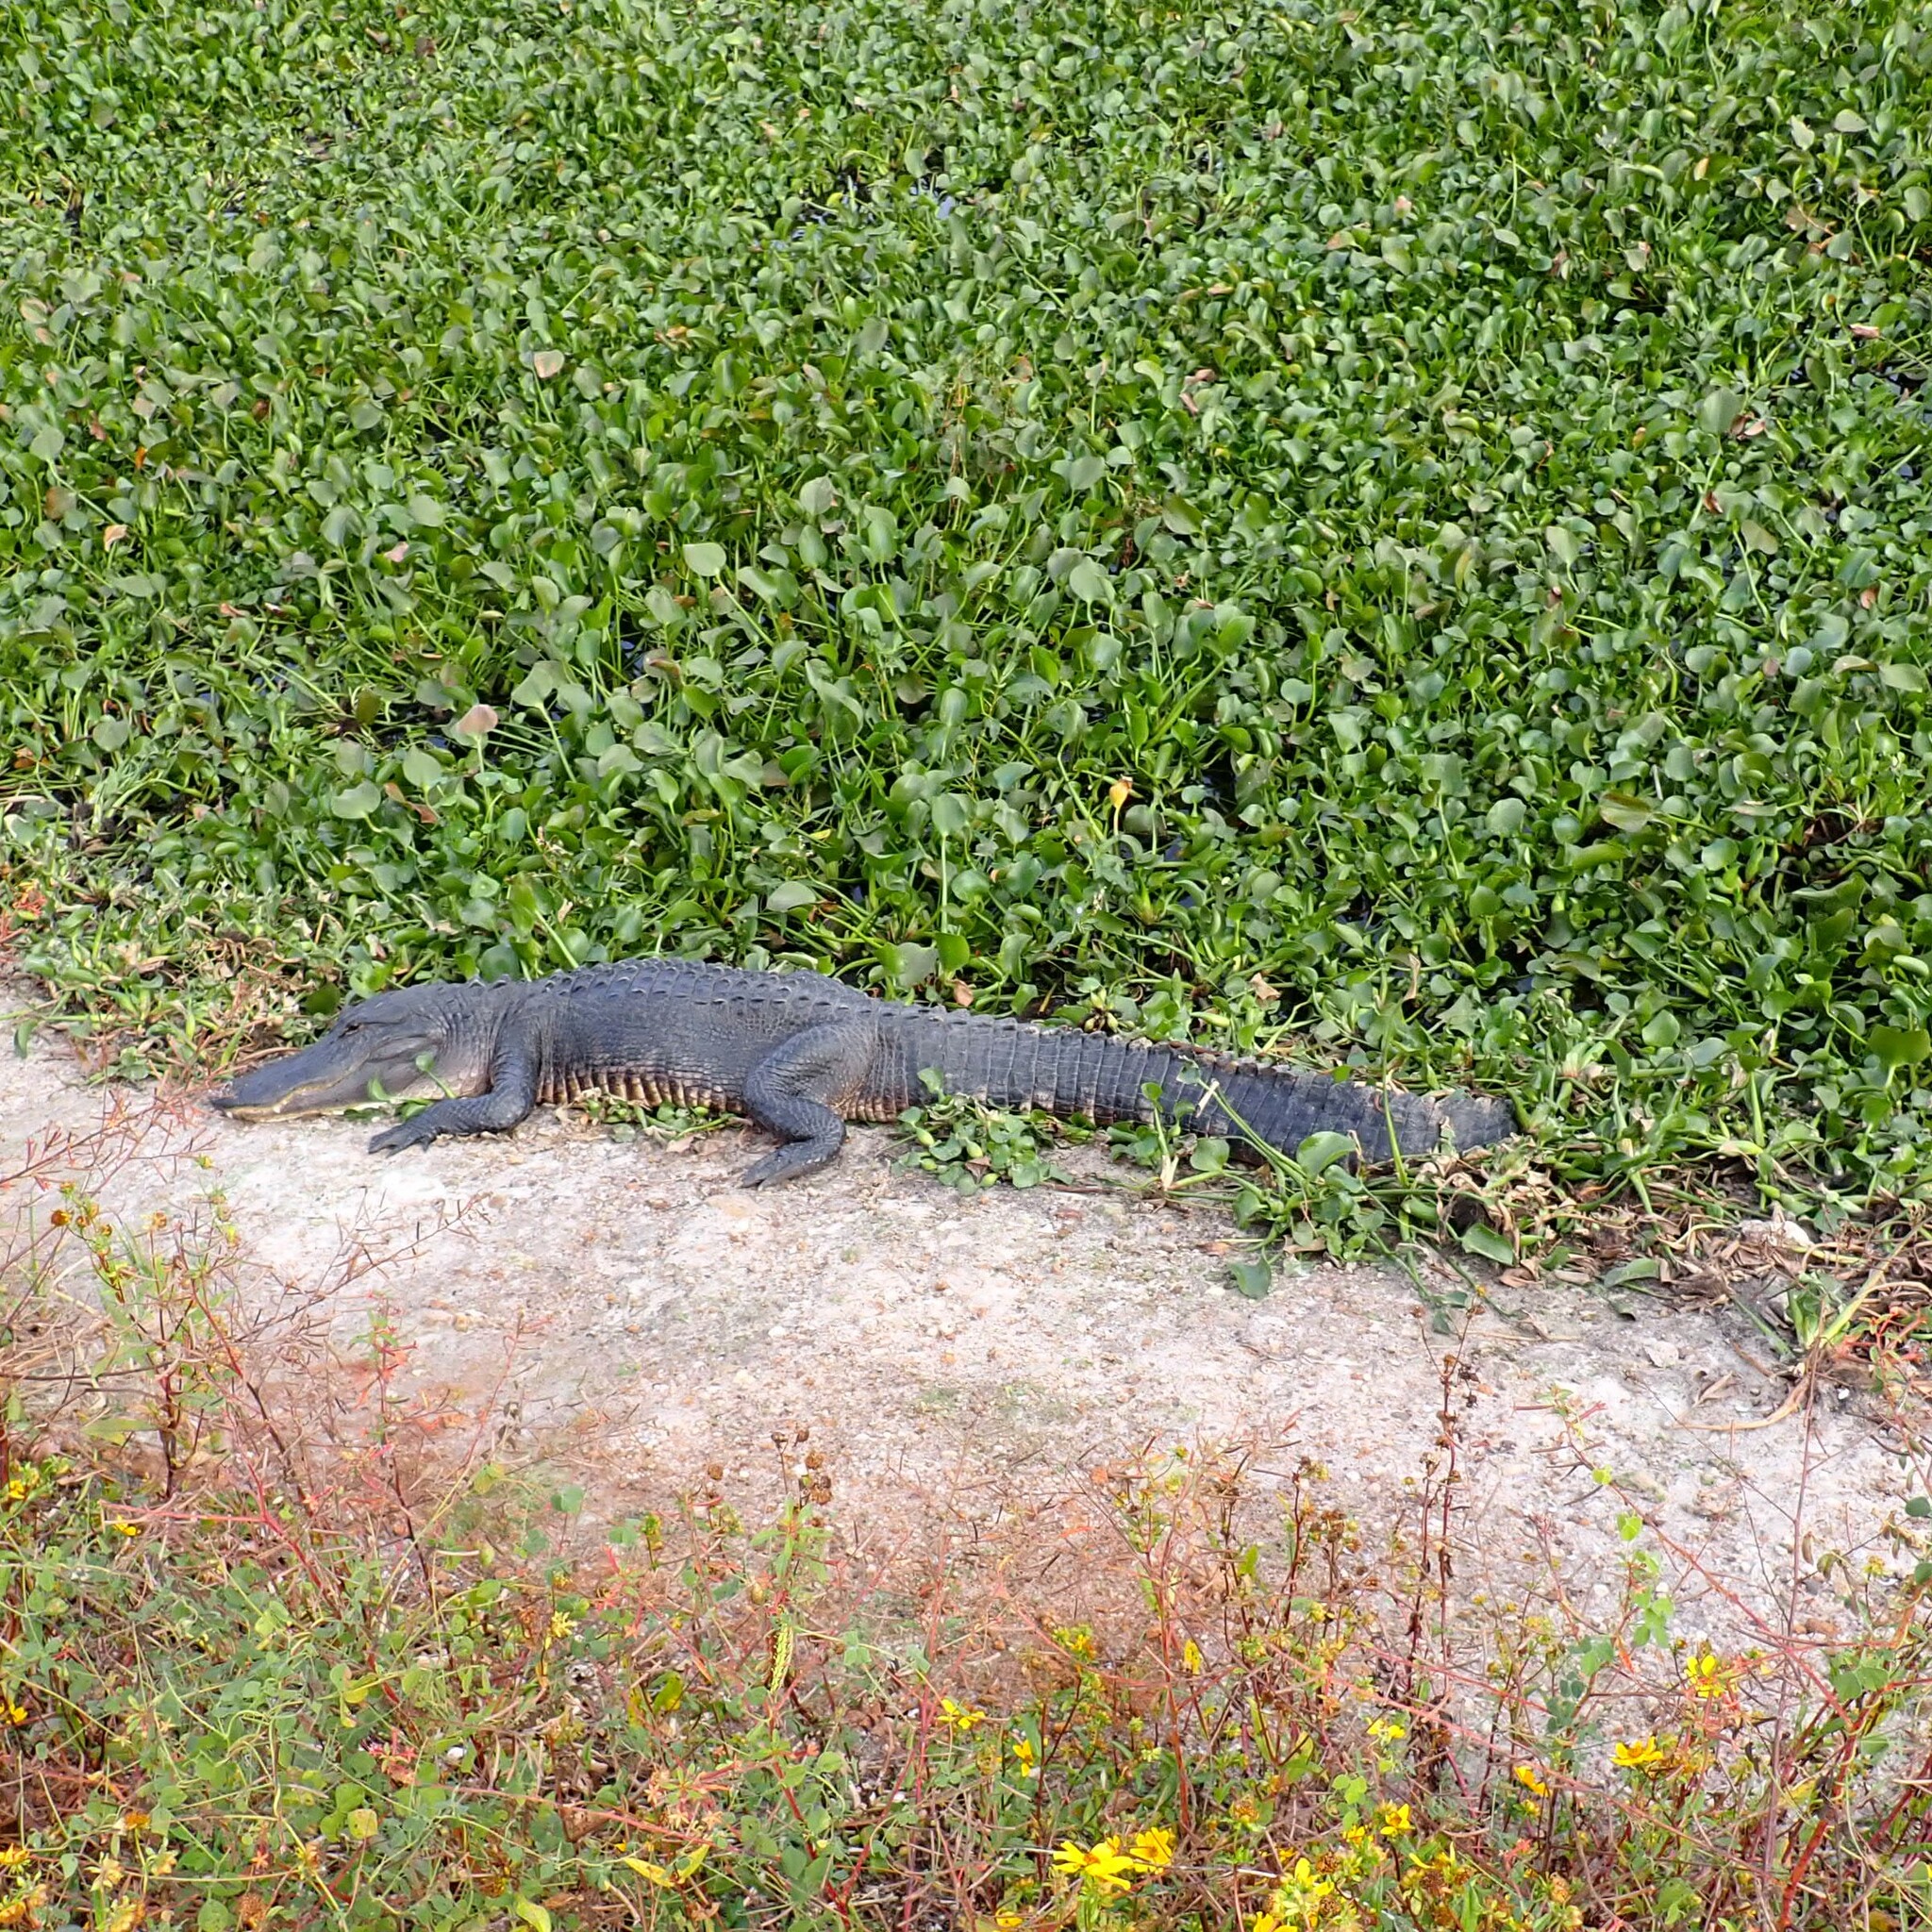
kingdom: Animalia
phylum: Chordata
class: Crocodylia
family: Alligatoridae
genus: Alligator
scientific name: Alligator mississippiensis
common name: American alligator
